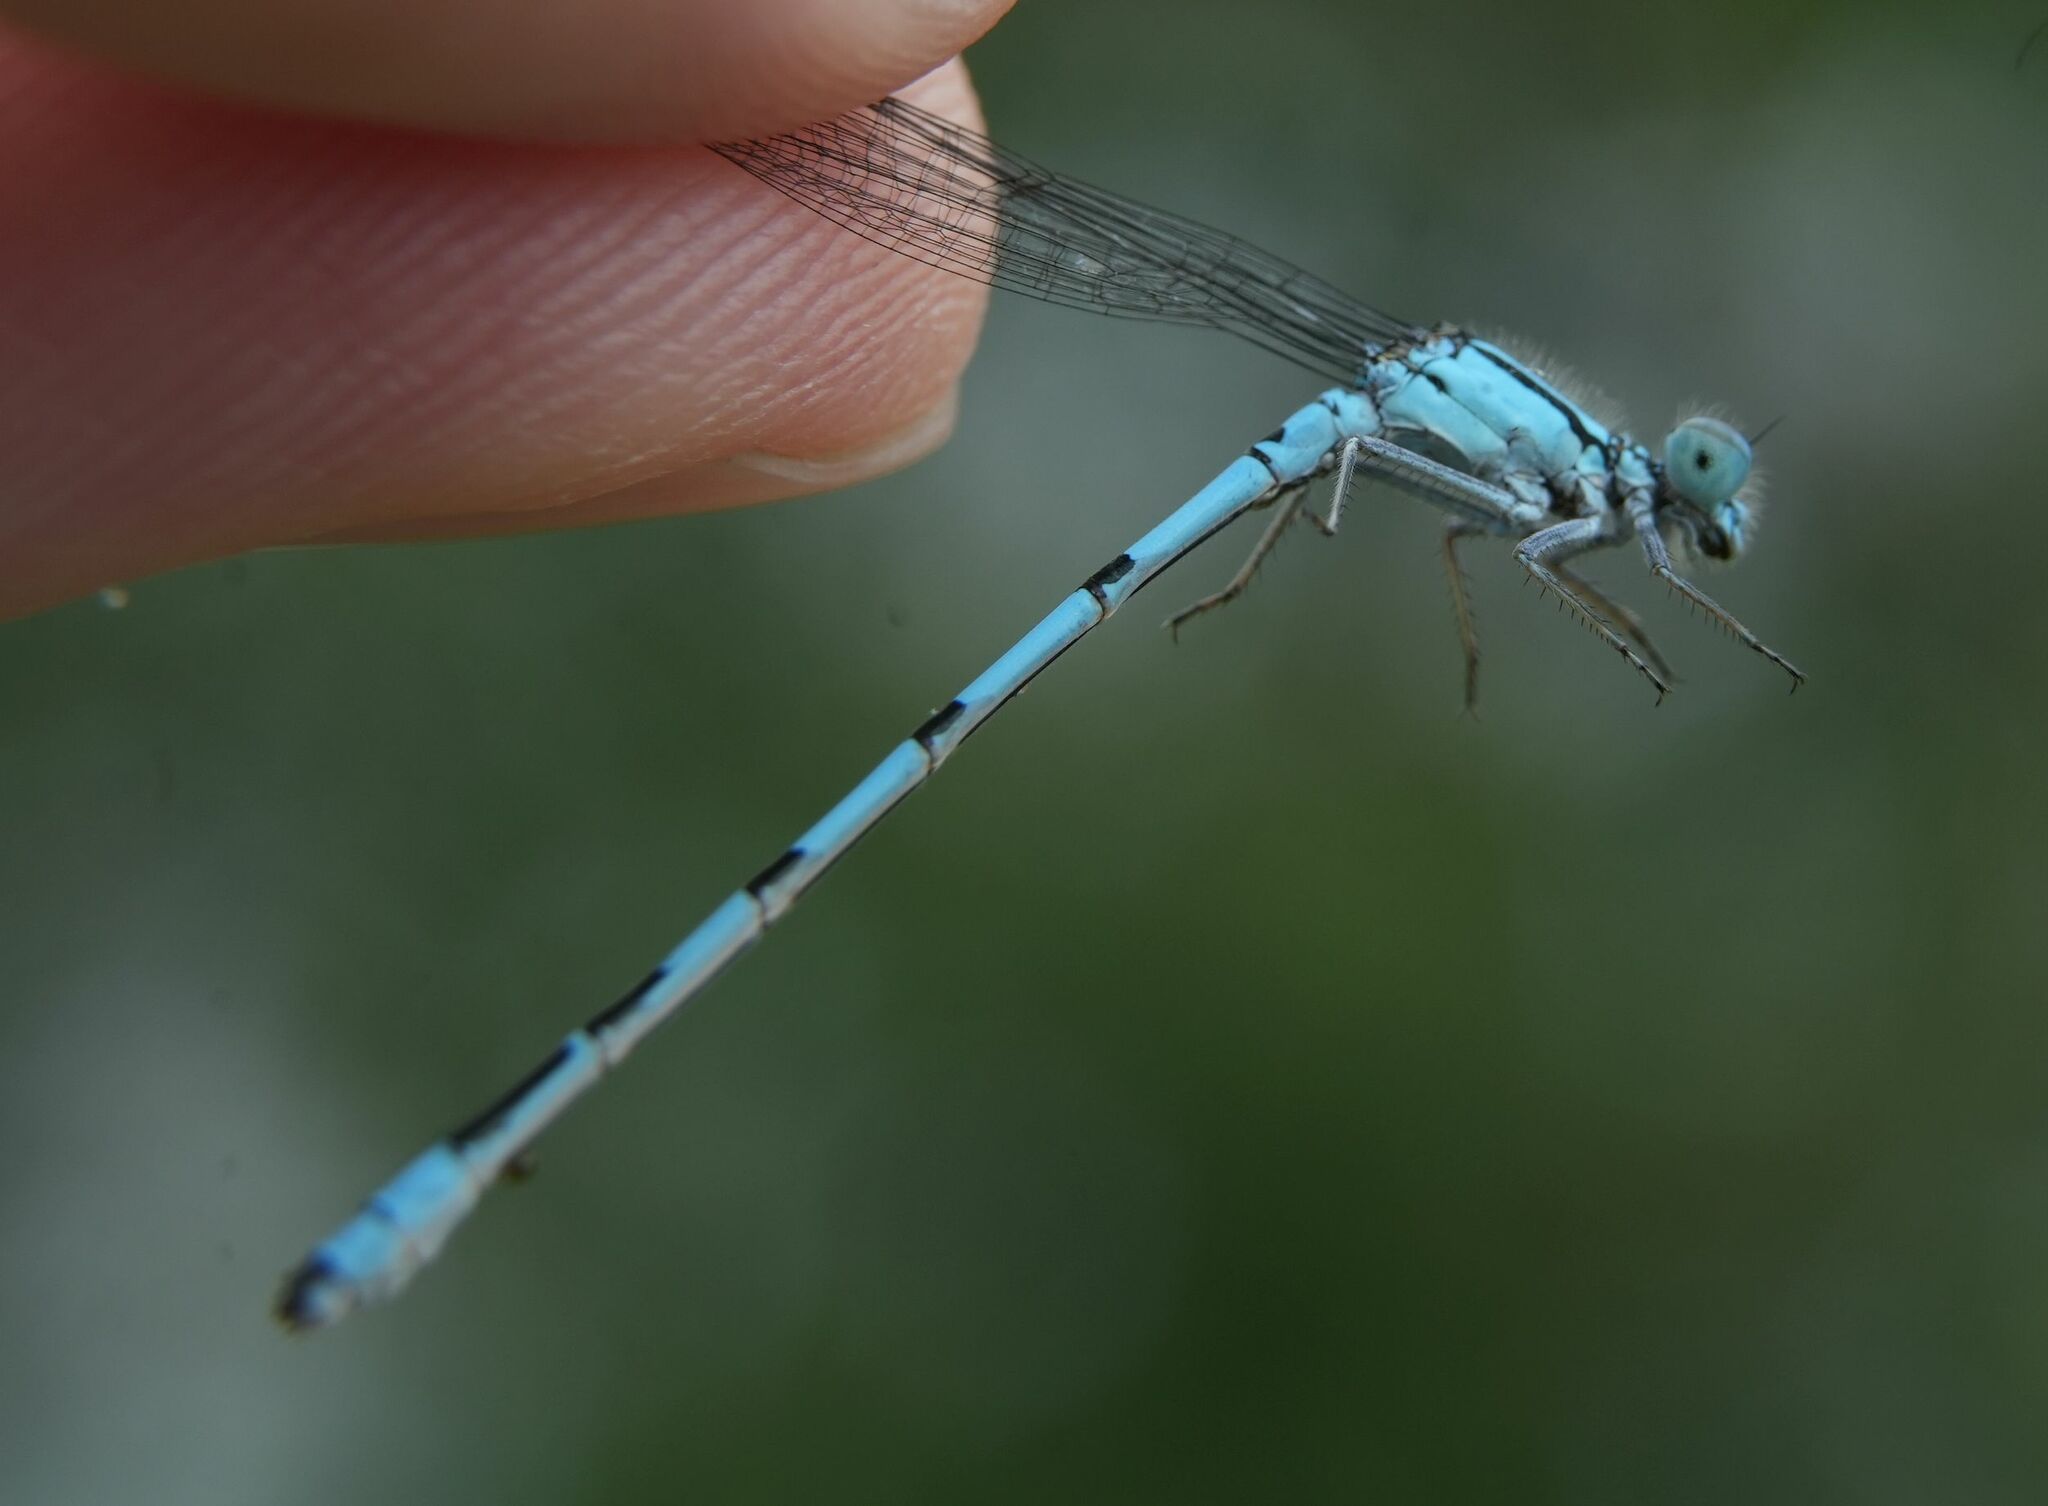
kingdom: Animalia
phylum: Arthropoda
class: Insecta
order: Odonata
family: Coenagrionidae
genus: Enallagma
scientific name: Enallagma ebrium
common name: Marsh bluet
